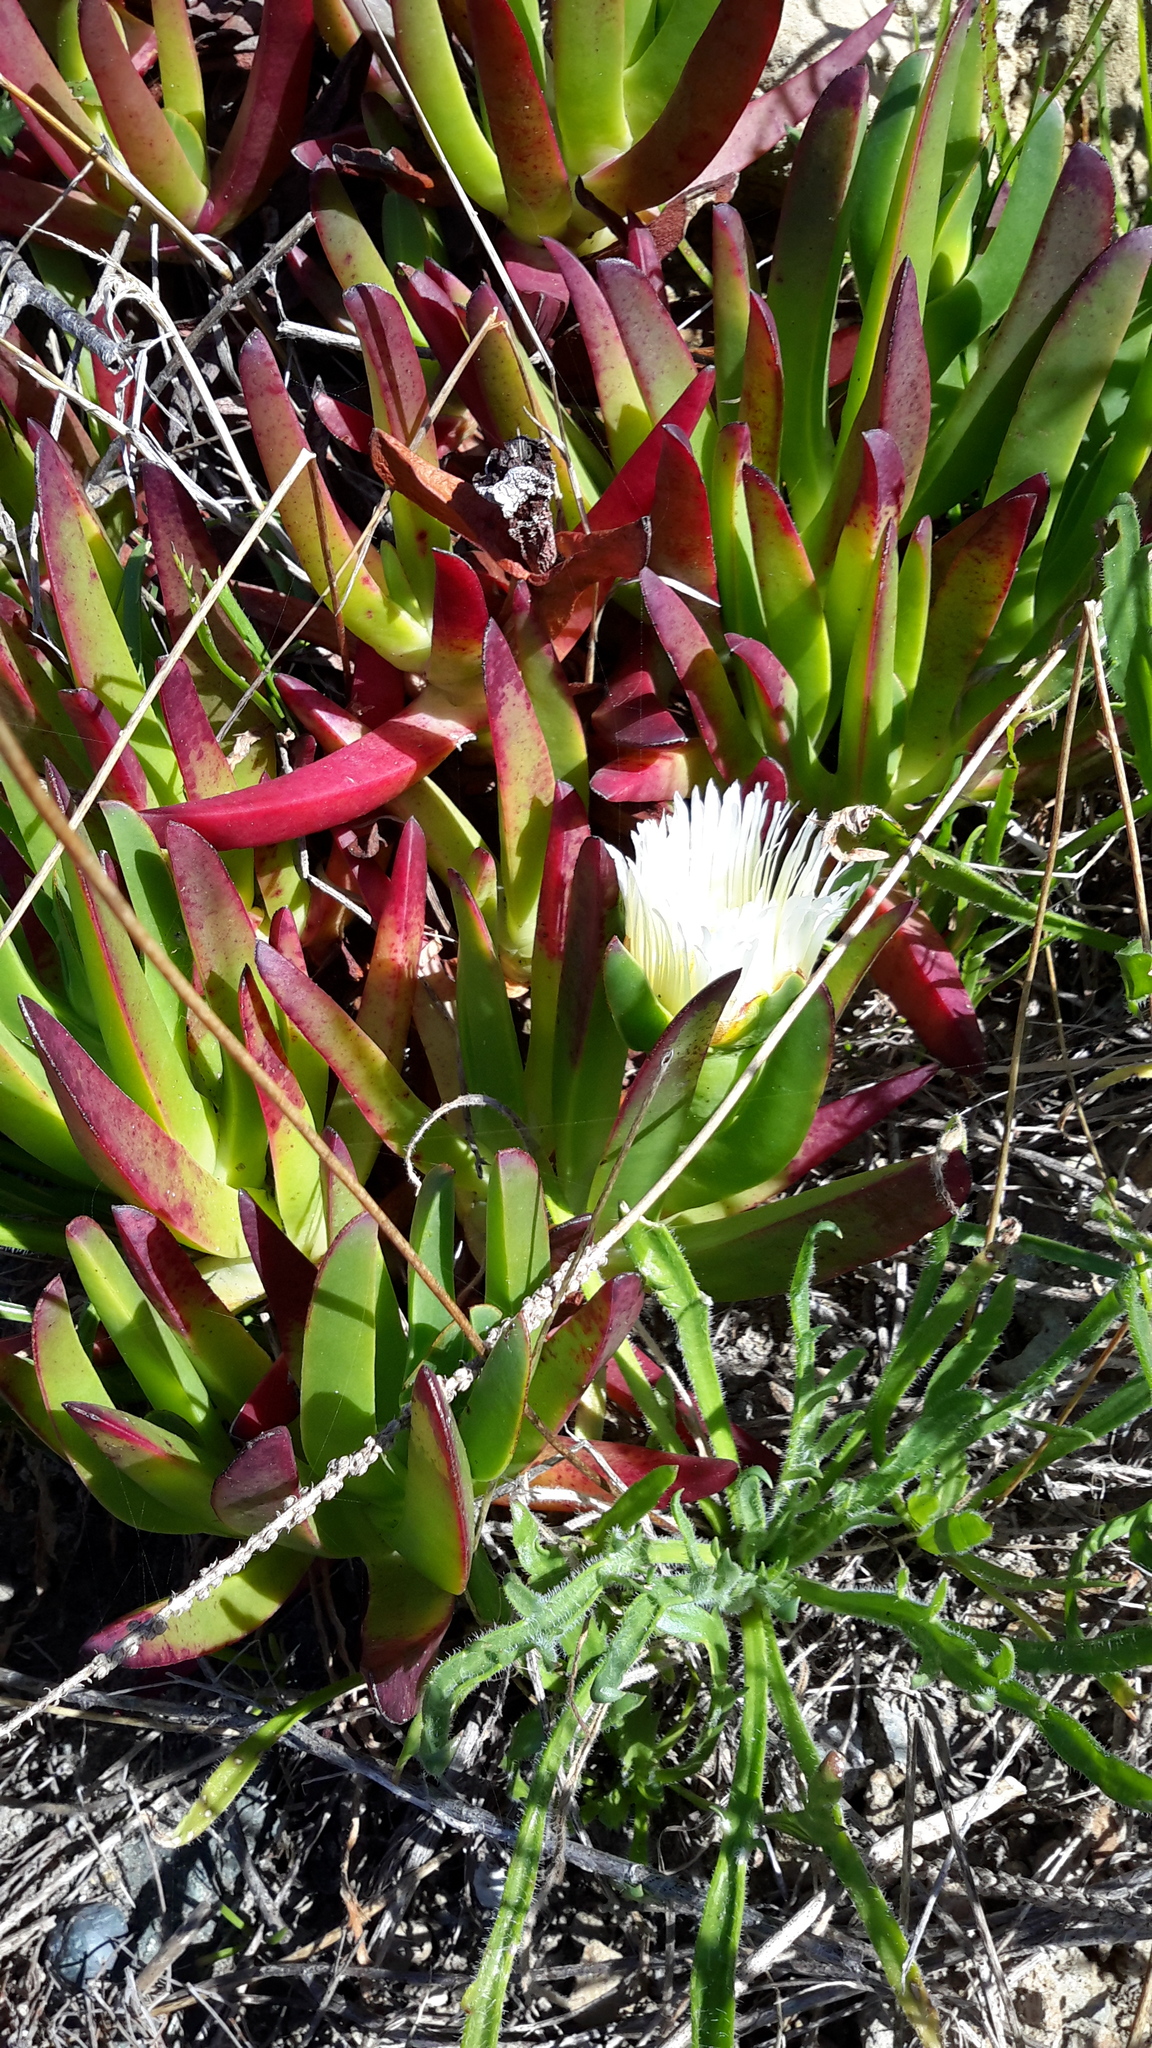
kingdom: Plantae
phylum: Tracheophyta
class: Magnoliopsida
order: Caryophyllales
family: Aizoaceae
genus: Carpobrotus
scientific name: Carpobrotus edulis
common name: Hottentot-fig
